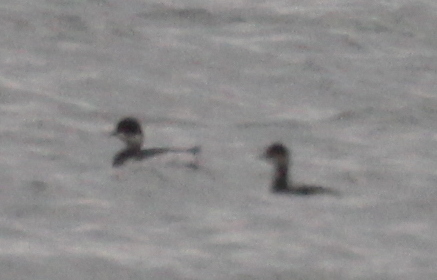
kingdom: Animalia
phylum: Chordata
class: Aves
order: Podicipediformes
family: Podicipedidae
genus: Podiceps
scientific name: Podiceps nigricollis
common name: Black-necked grebe
